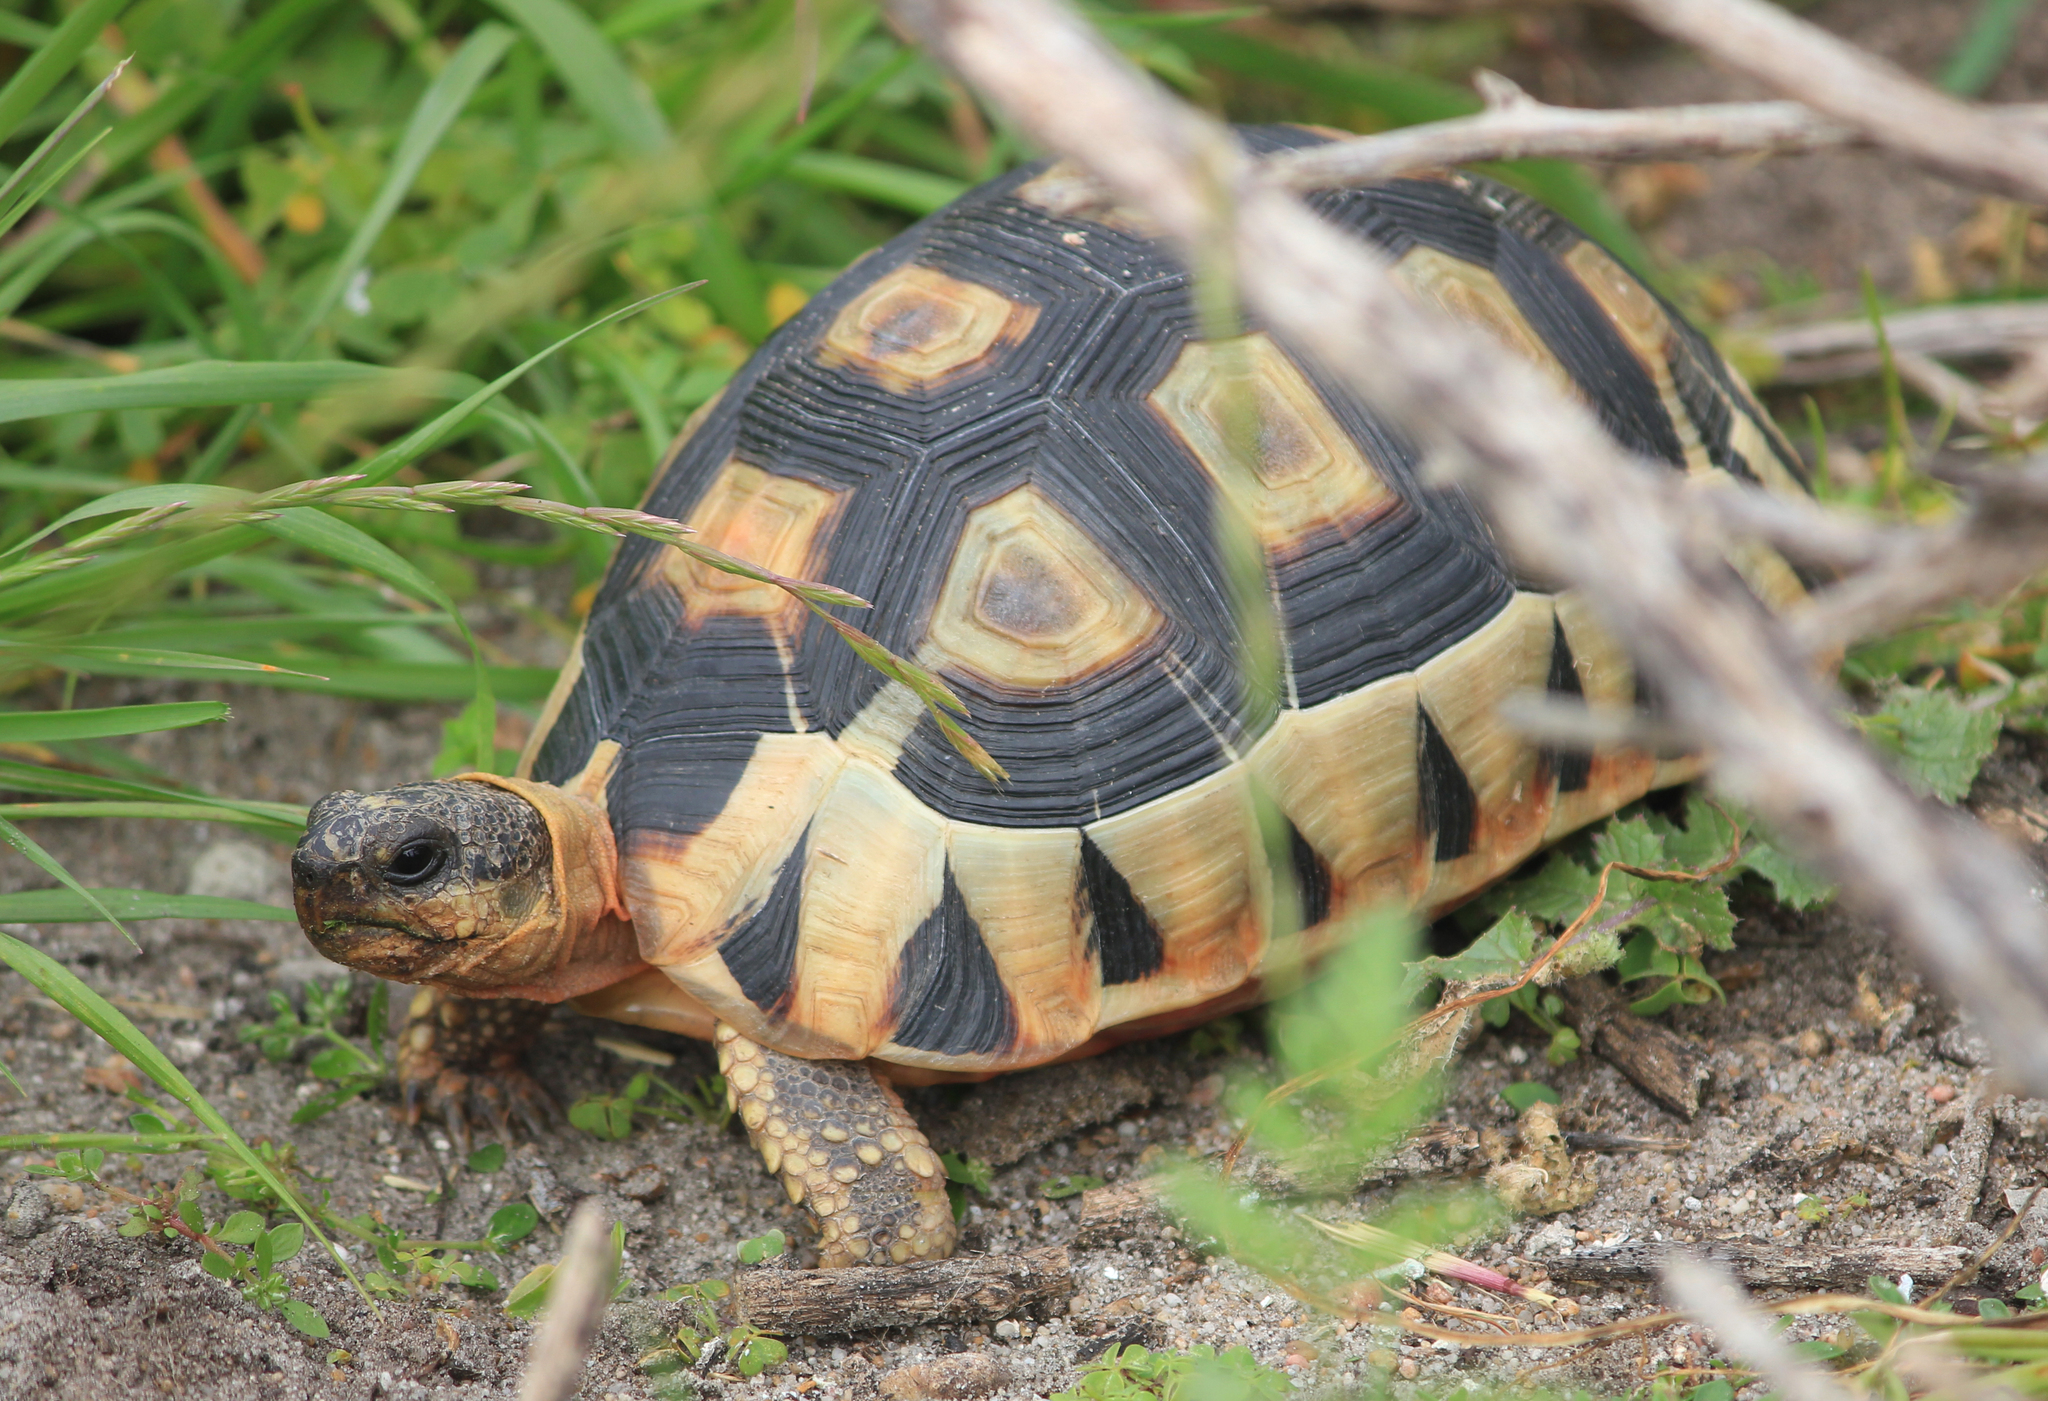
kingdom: Animalia
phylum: Chordata
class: Testudines
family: Testudinidae
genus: Chersina
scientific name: Chersina angulata
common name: South african bowsprit tortoise
